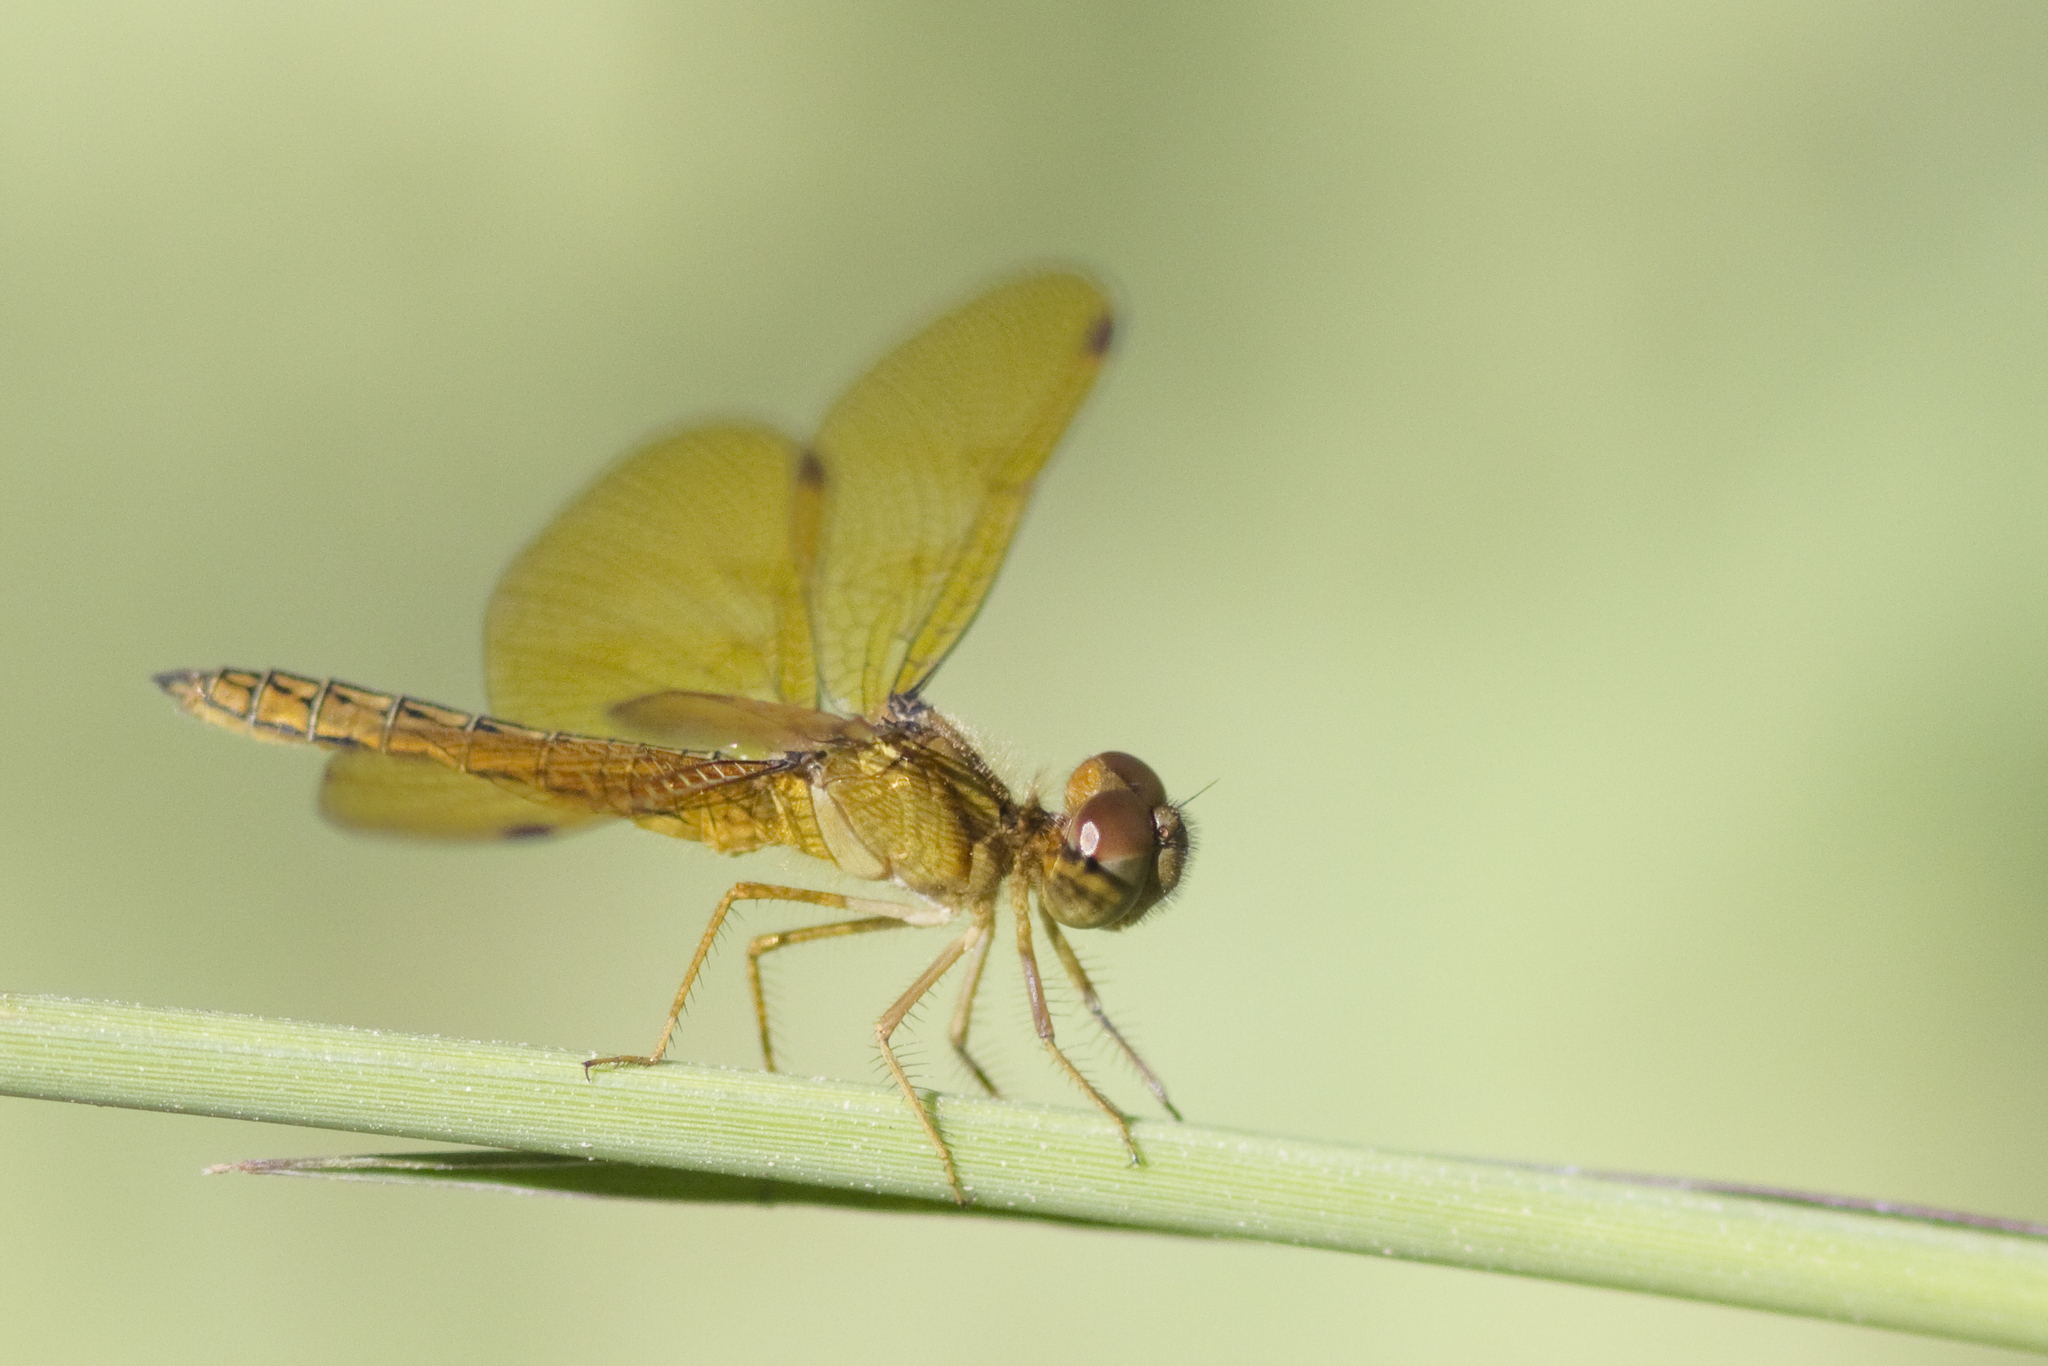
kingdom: Animalia
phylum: Arthropoda
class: Insecta
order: Odonata
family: Libellulidae
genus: Perithemis
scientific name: Perithemis icteroptera
